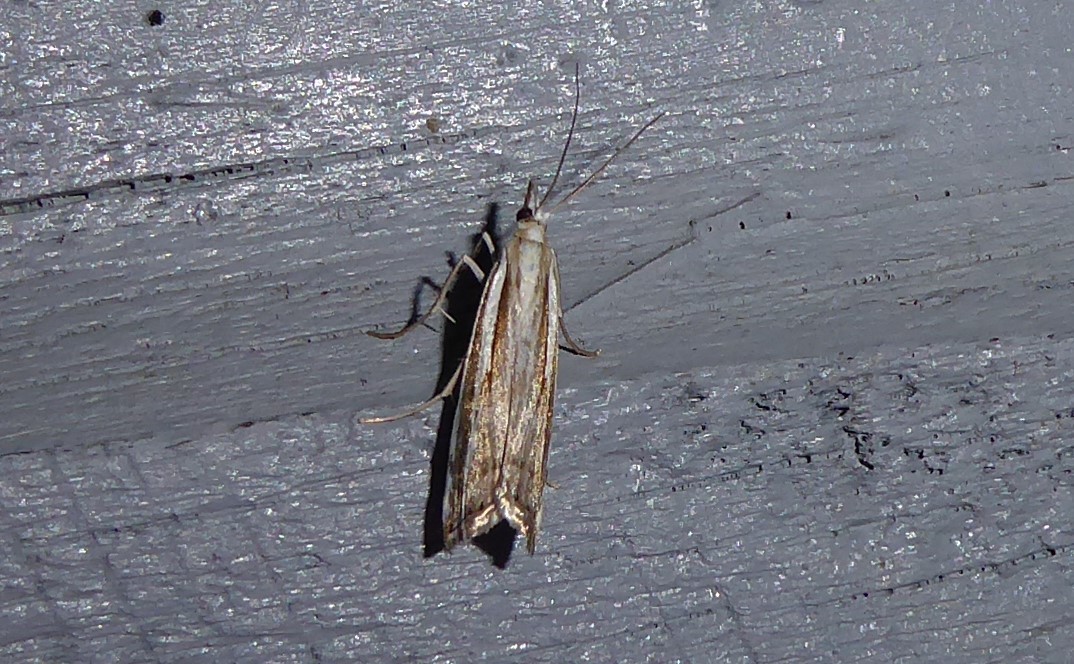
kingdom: Animalia
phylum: Arthropoda
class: Insecta
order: Lepidoptera
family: Crambidae
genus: Orocrambus
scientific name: Orocrambus vittellus
